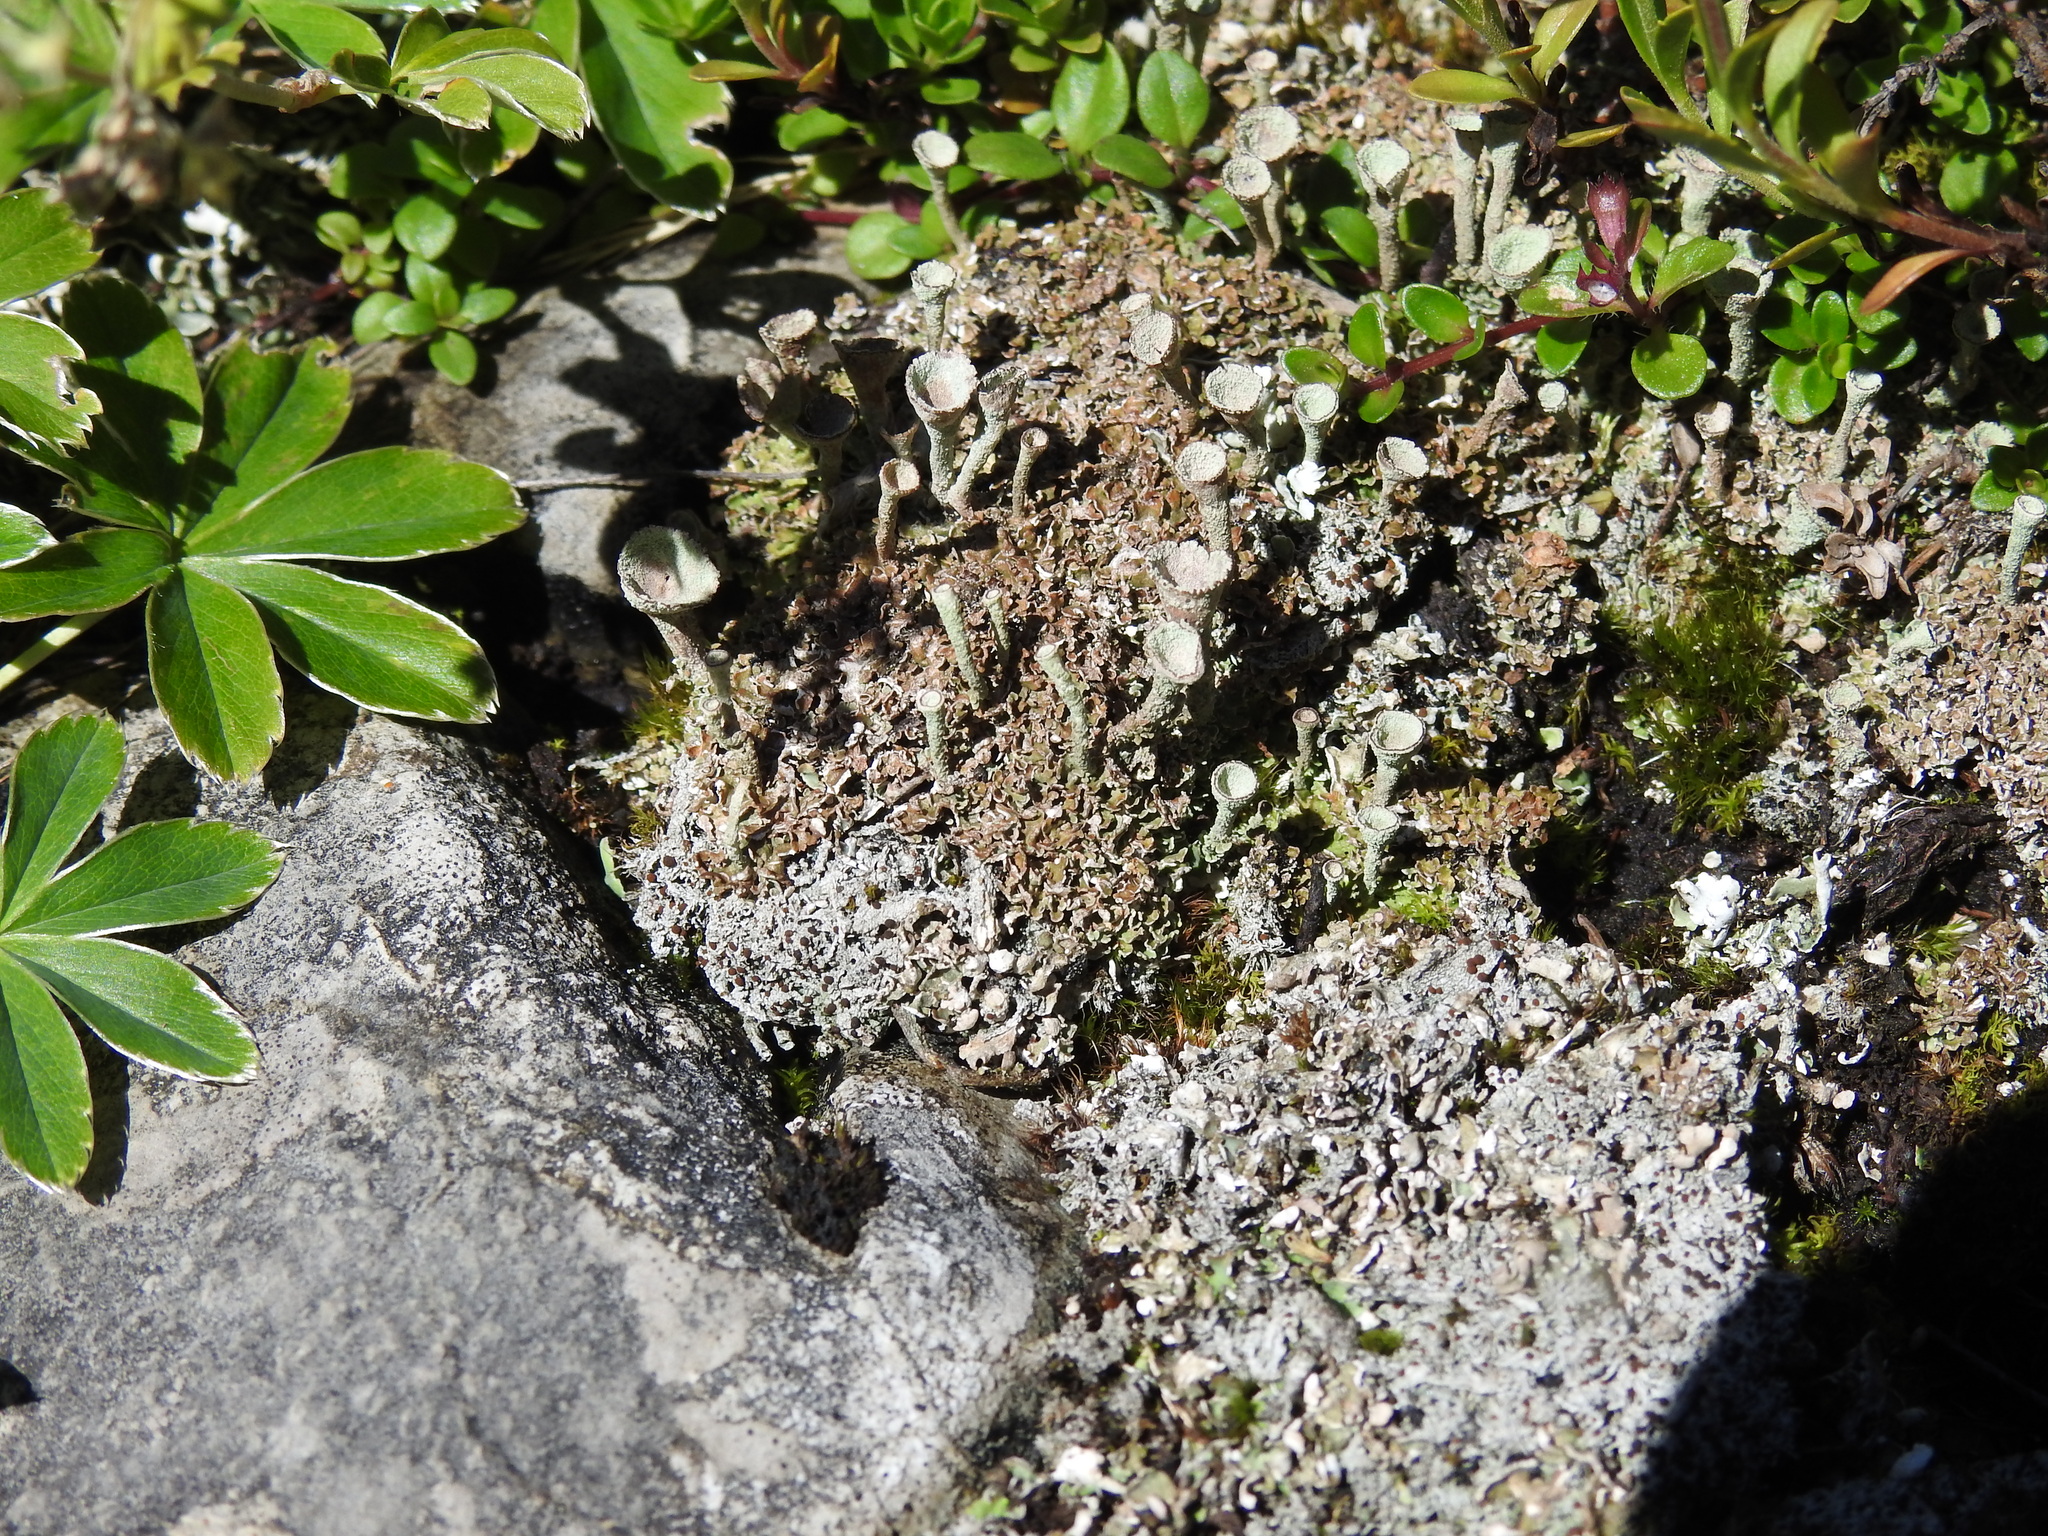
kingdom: Fungi
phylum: Ascomycota
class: Lecanoromycetes
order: Lecanorales
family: Cladoniaceae
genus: Cladonia
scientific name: Cladonia pocillum
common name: Rosette pixie-cup lichen
